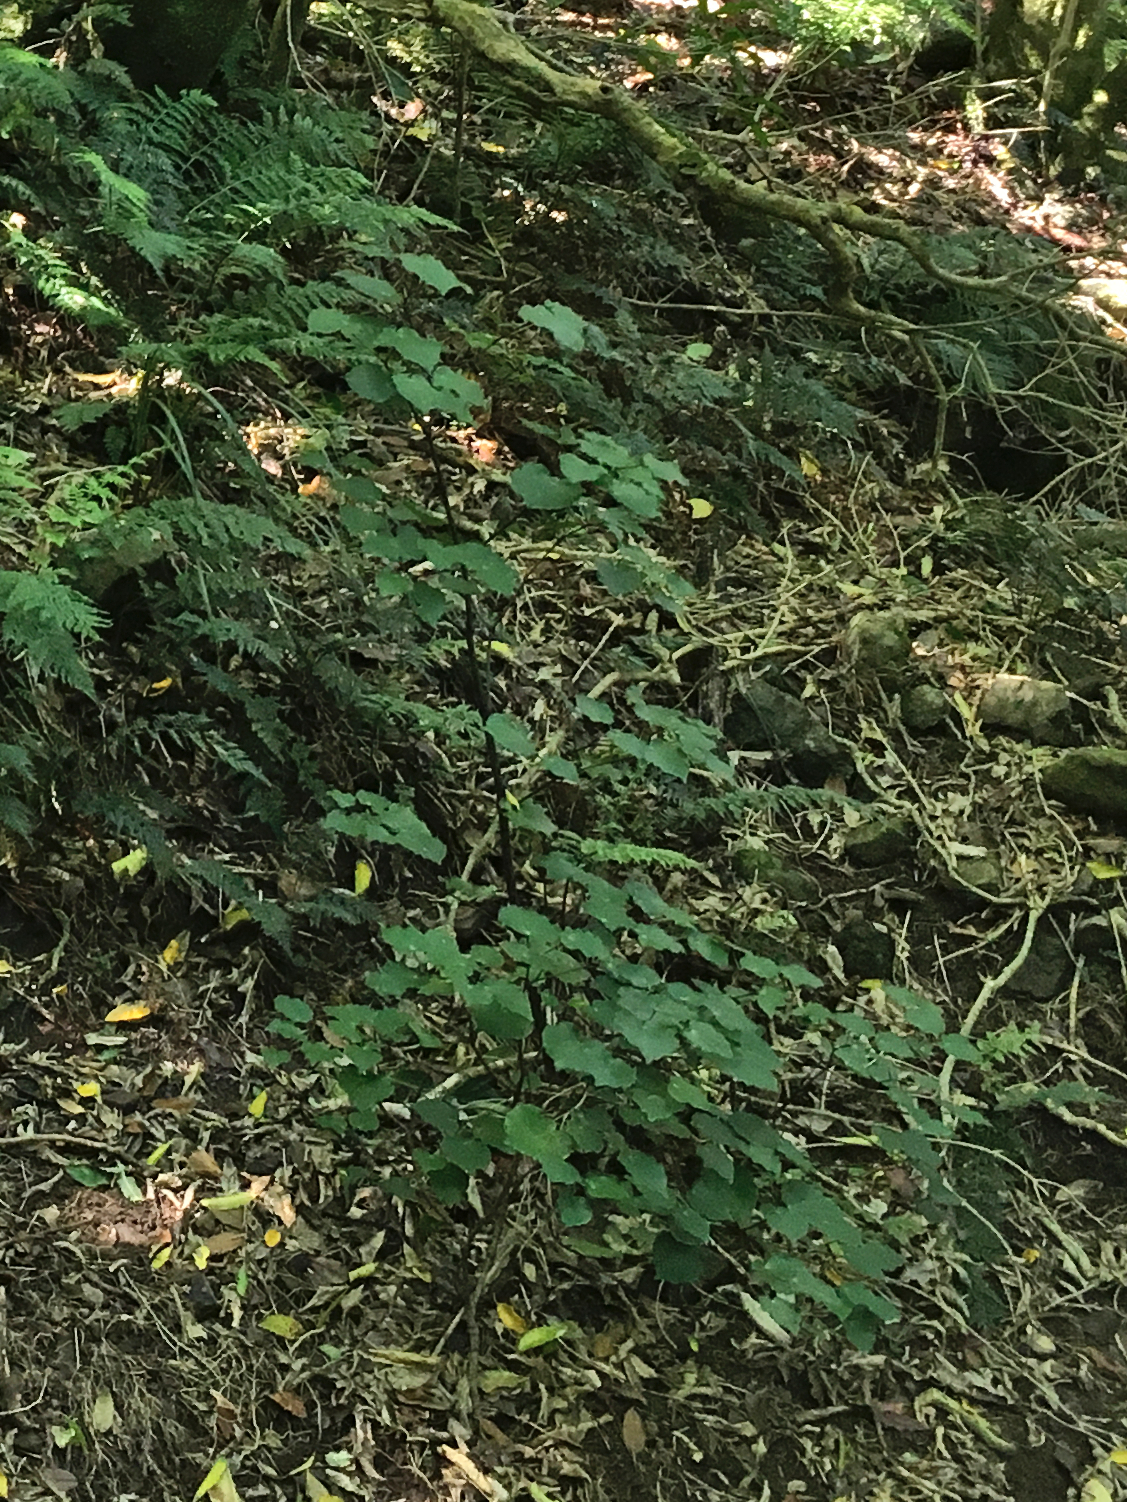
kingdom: Plantae
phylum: Tracheophyta
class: Magnoliopsida
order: Piperales
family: Piperaceae
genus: Macropiper
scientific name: Macropiper excelsum
